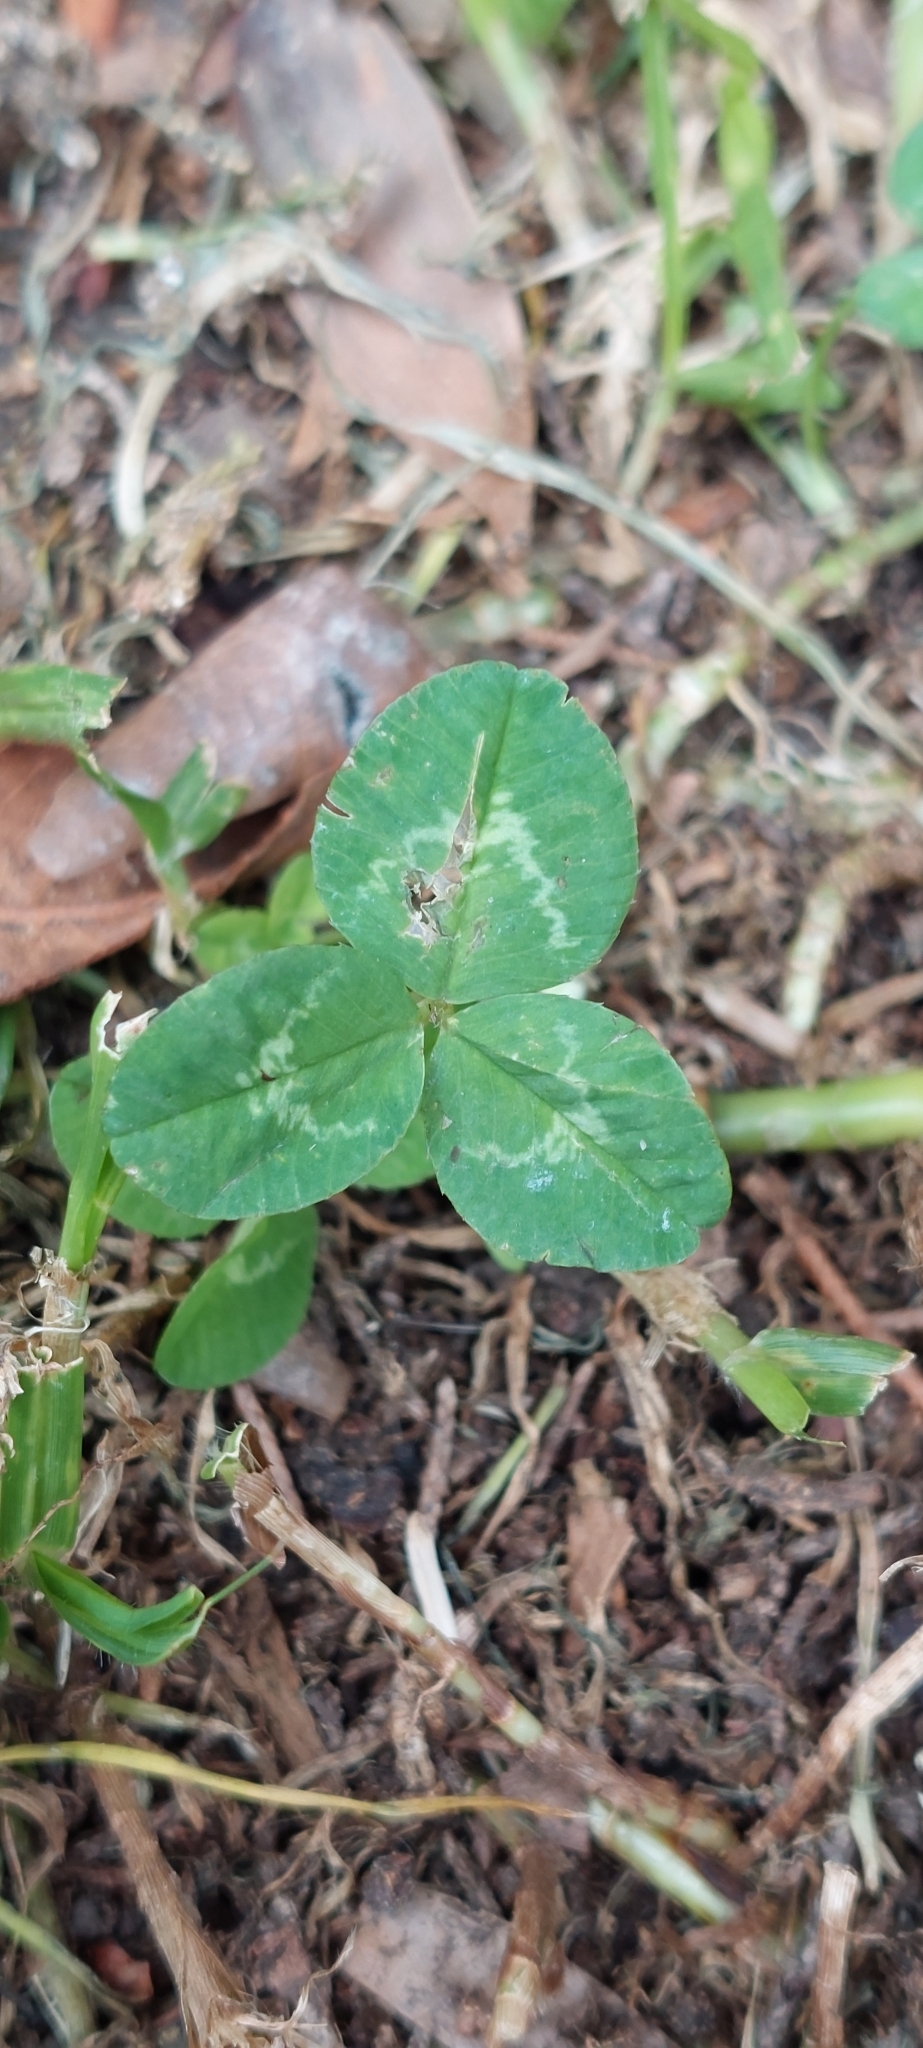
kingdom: Plantae
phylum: Tracheophyta
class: Magnoliopsida
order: Fabales
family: Fabaceae
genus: Trifolium
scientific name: Trifolium repens
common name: White clover
